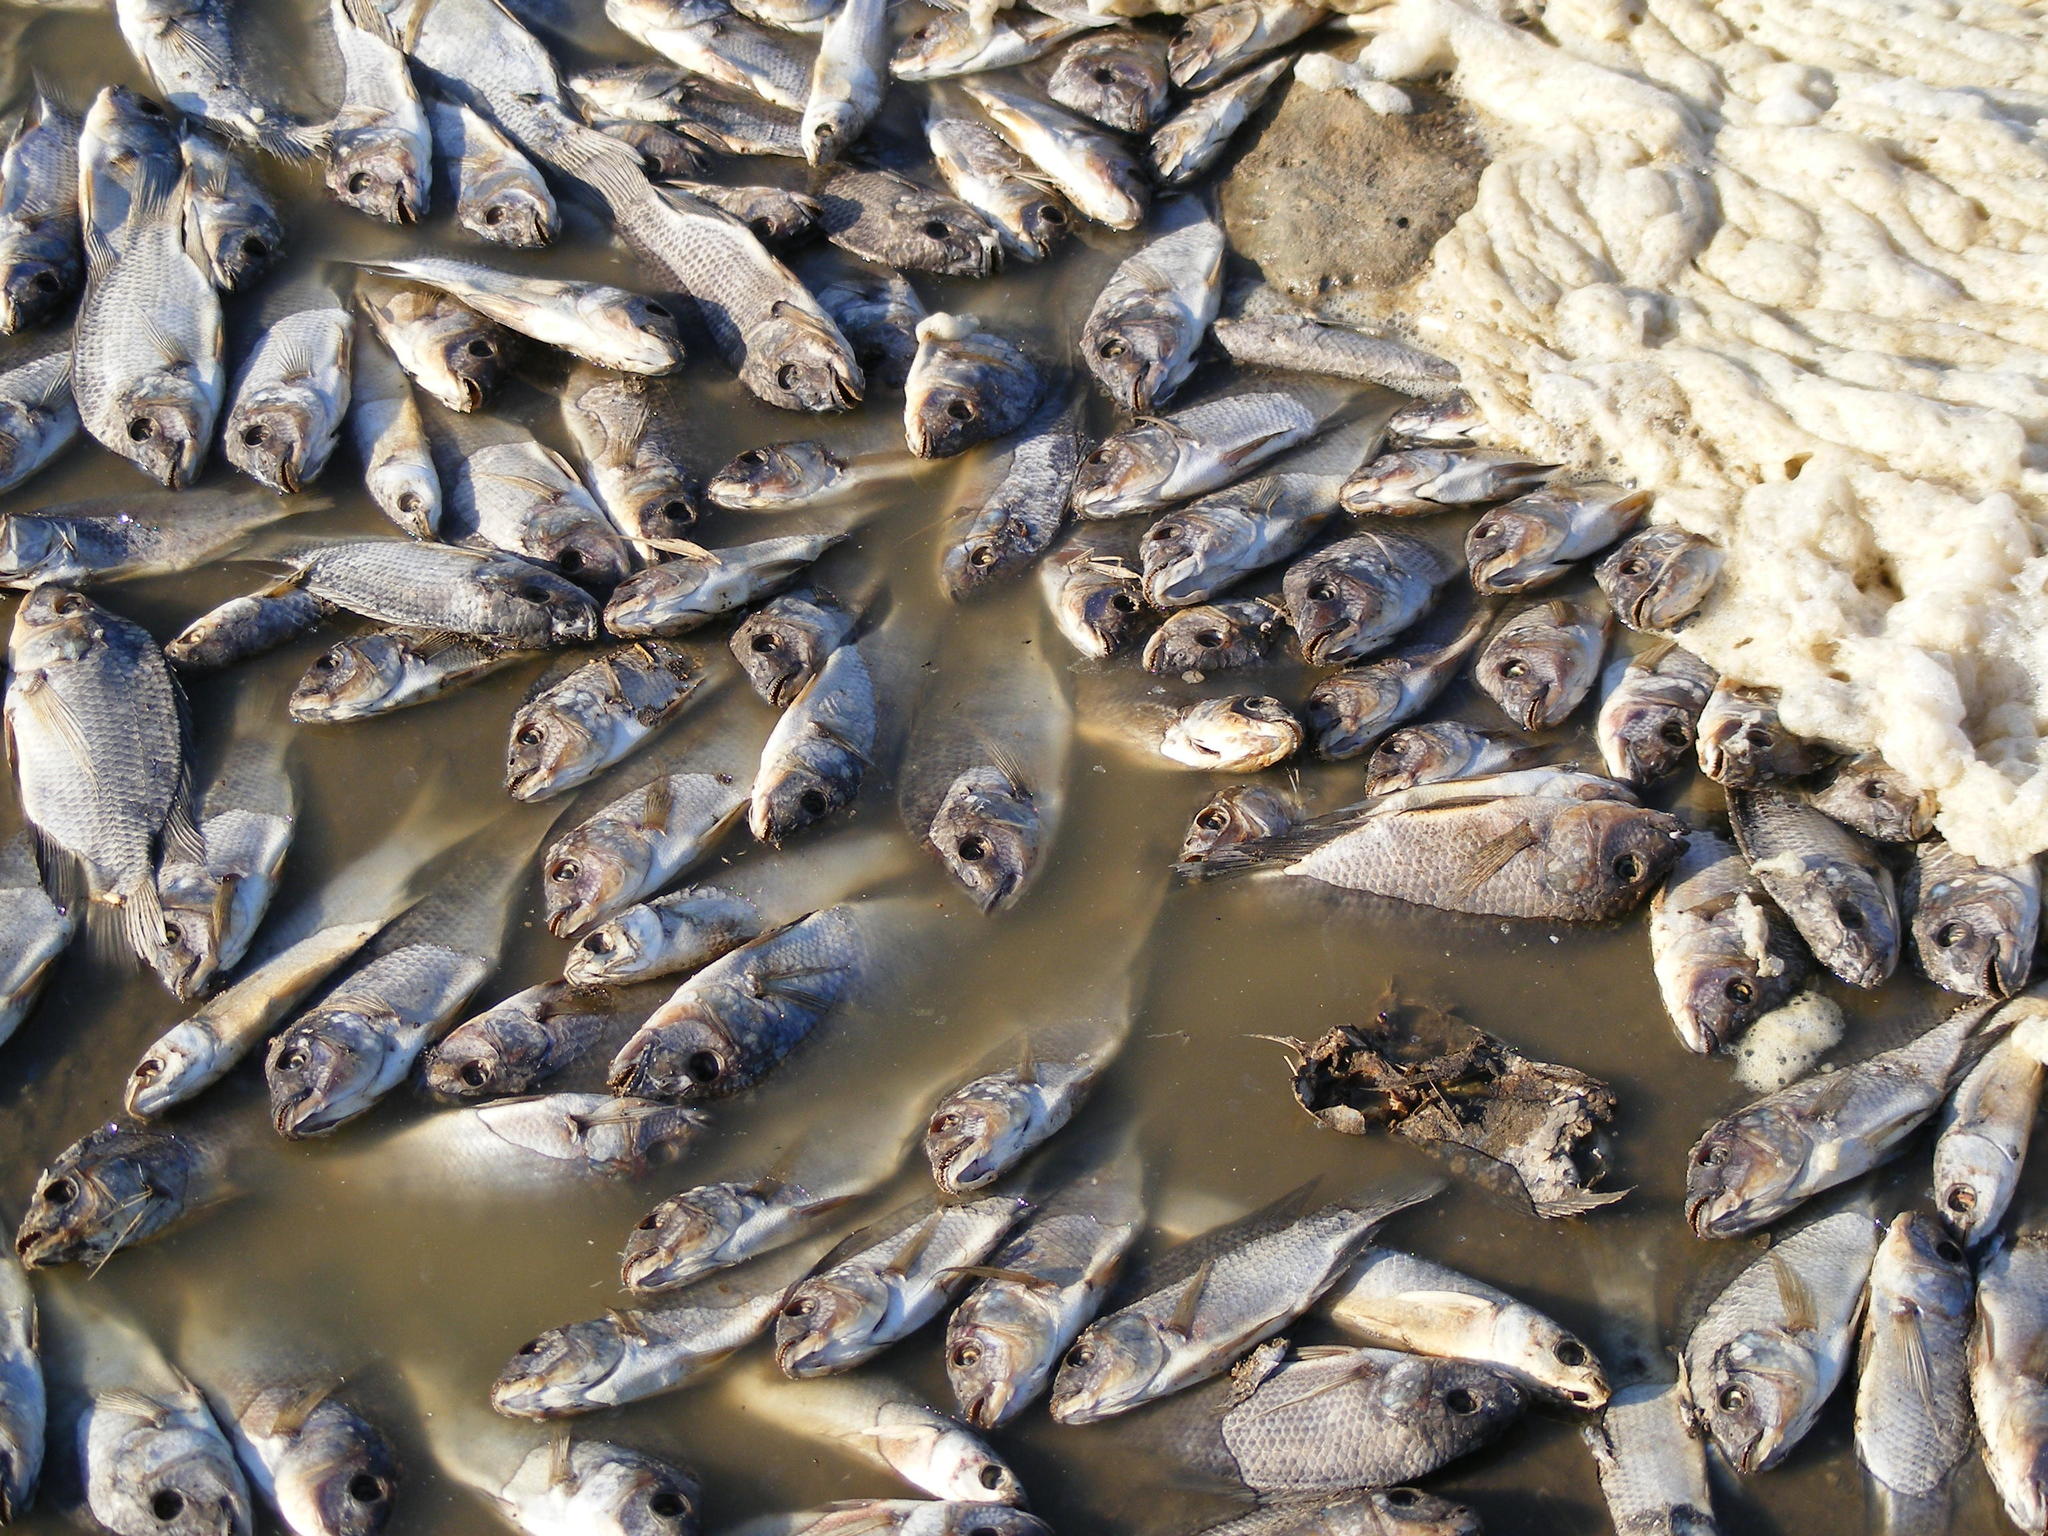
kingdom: Animalia
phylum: Chordata
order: Perciformes
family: Cichlidae
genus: Oreochromis
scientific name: Oreochromis mossambicus
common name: Mozambique tilapia
